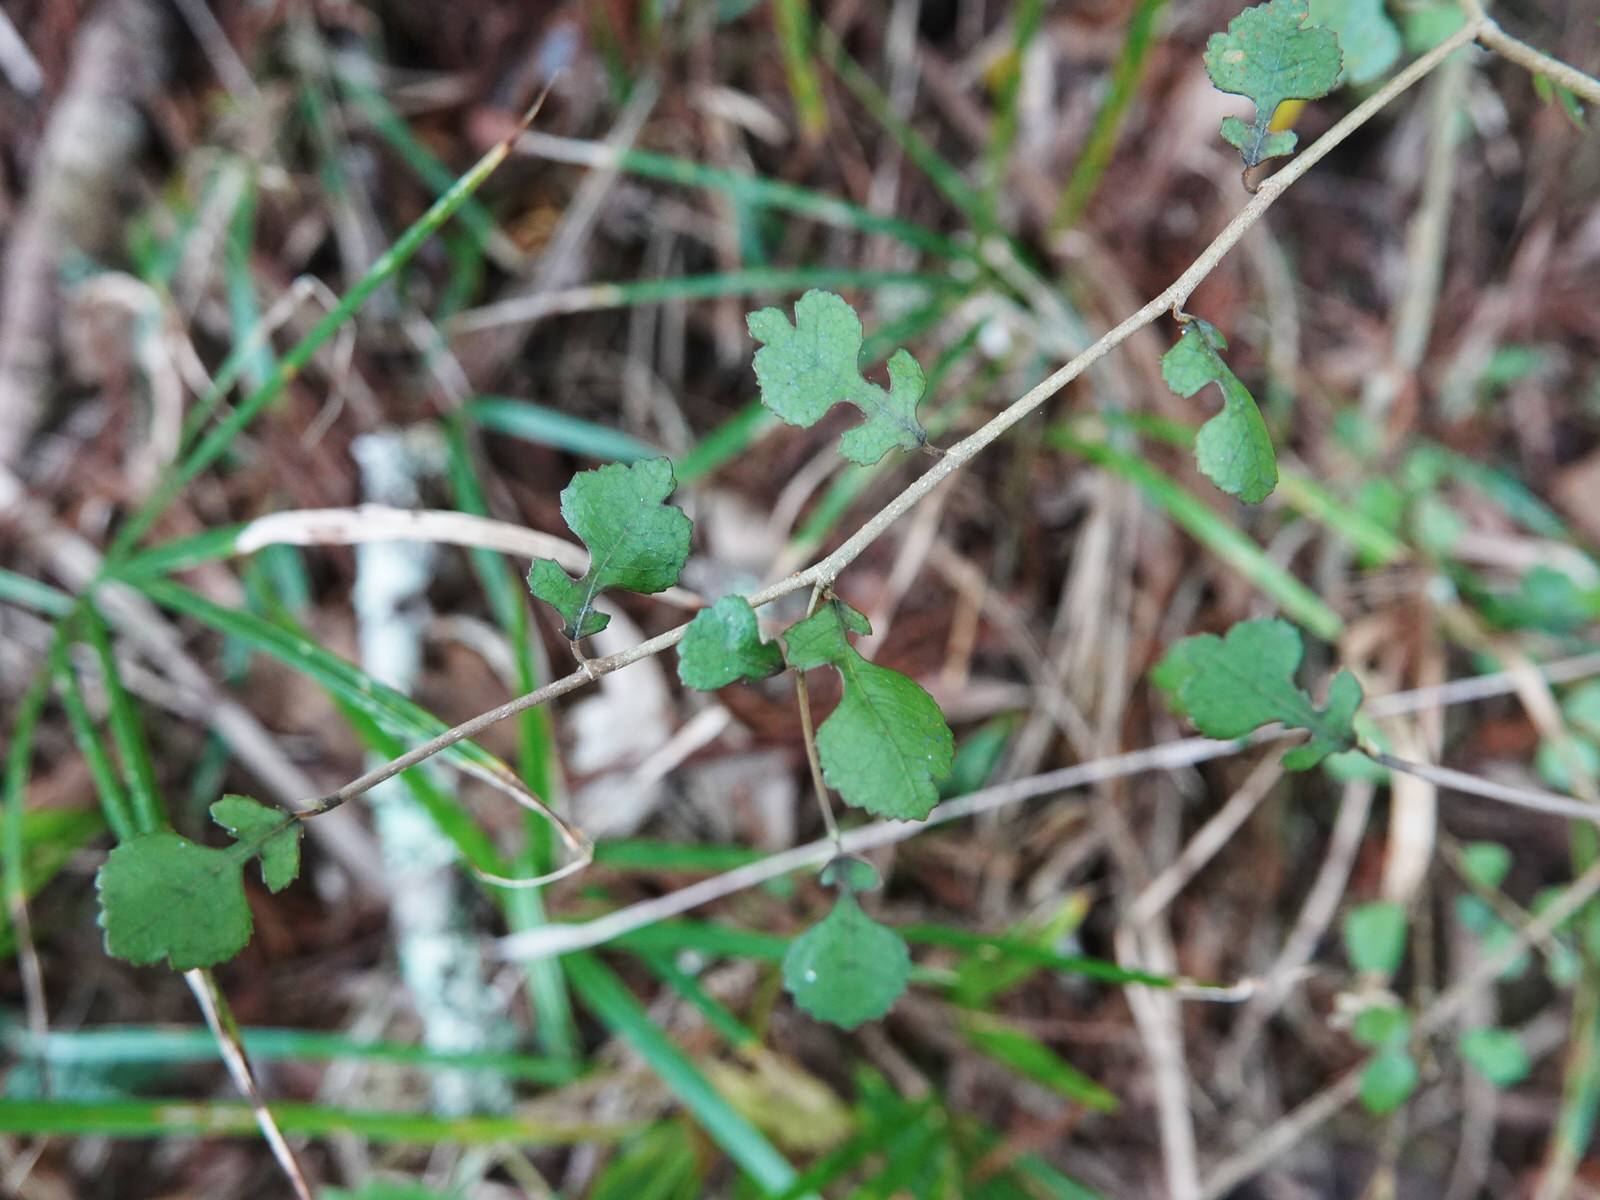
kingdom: Plantae
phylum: Tracheophyta
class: Magnoliopsida
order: Rosales
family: Moraceae
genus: Paratrophis
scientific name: Paratrophis microphylla
